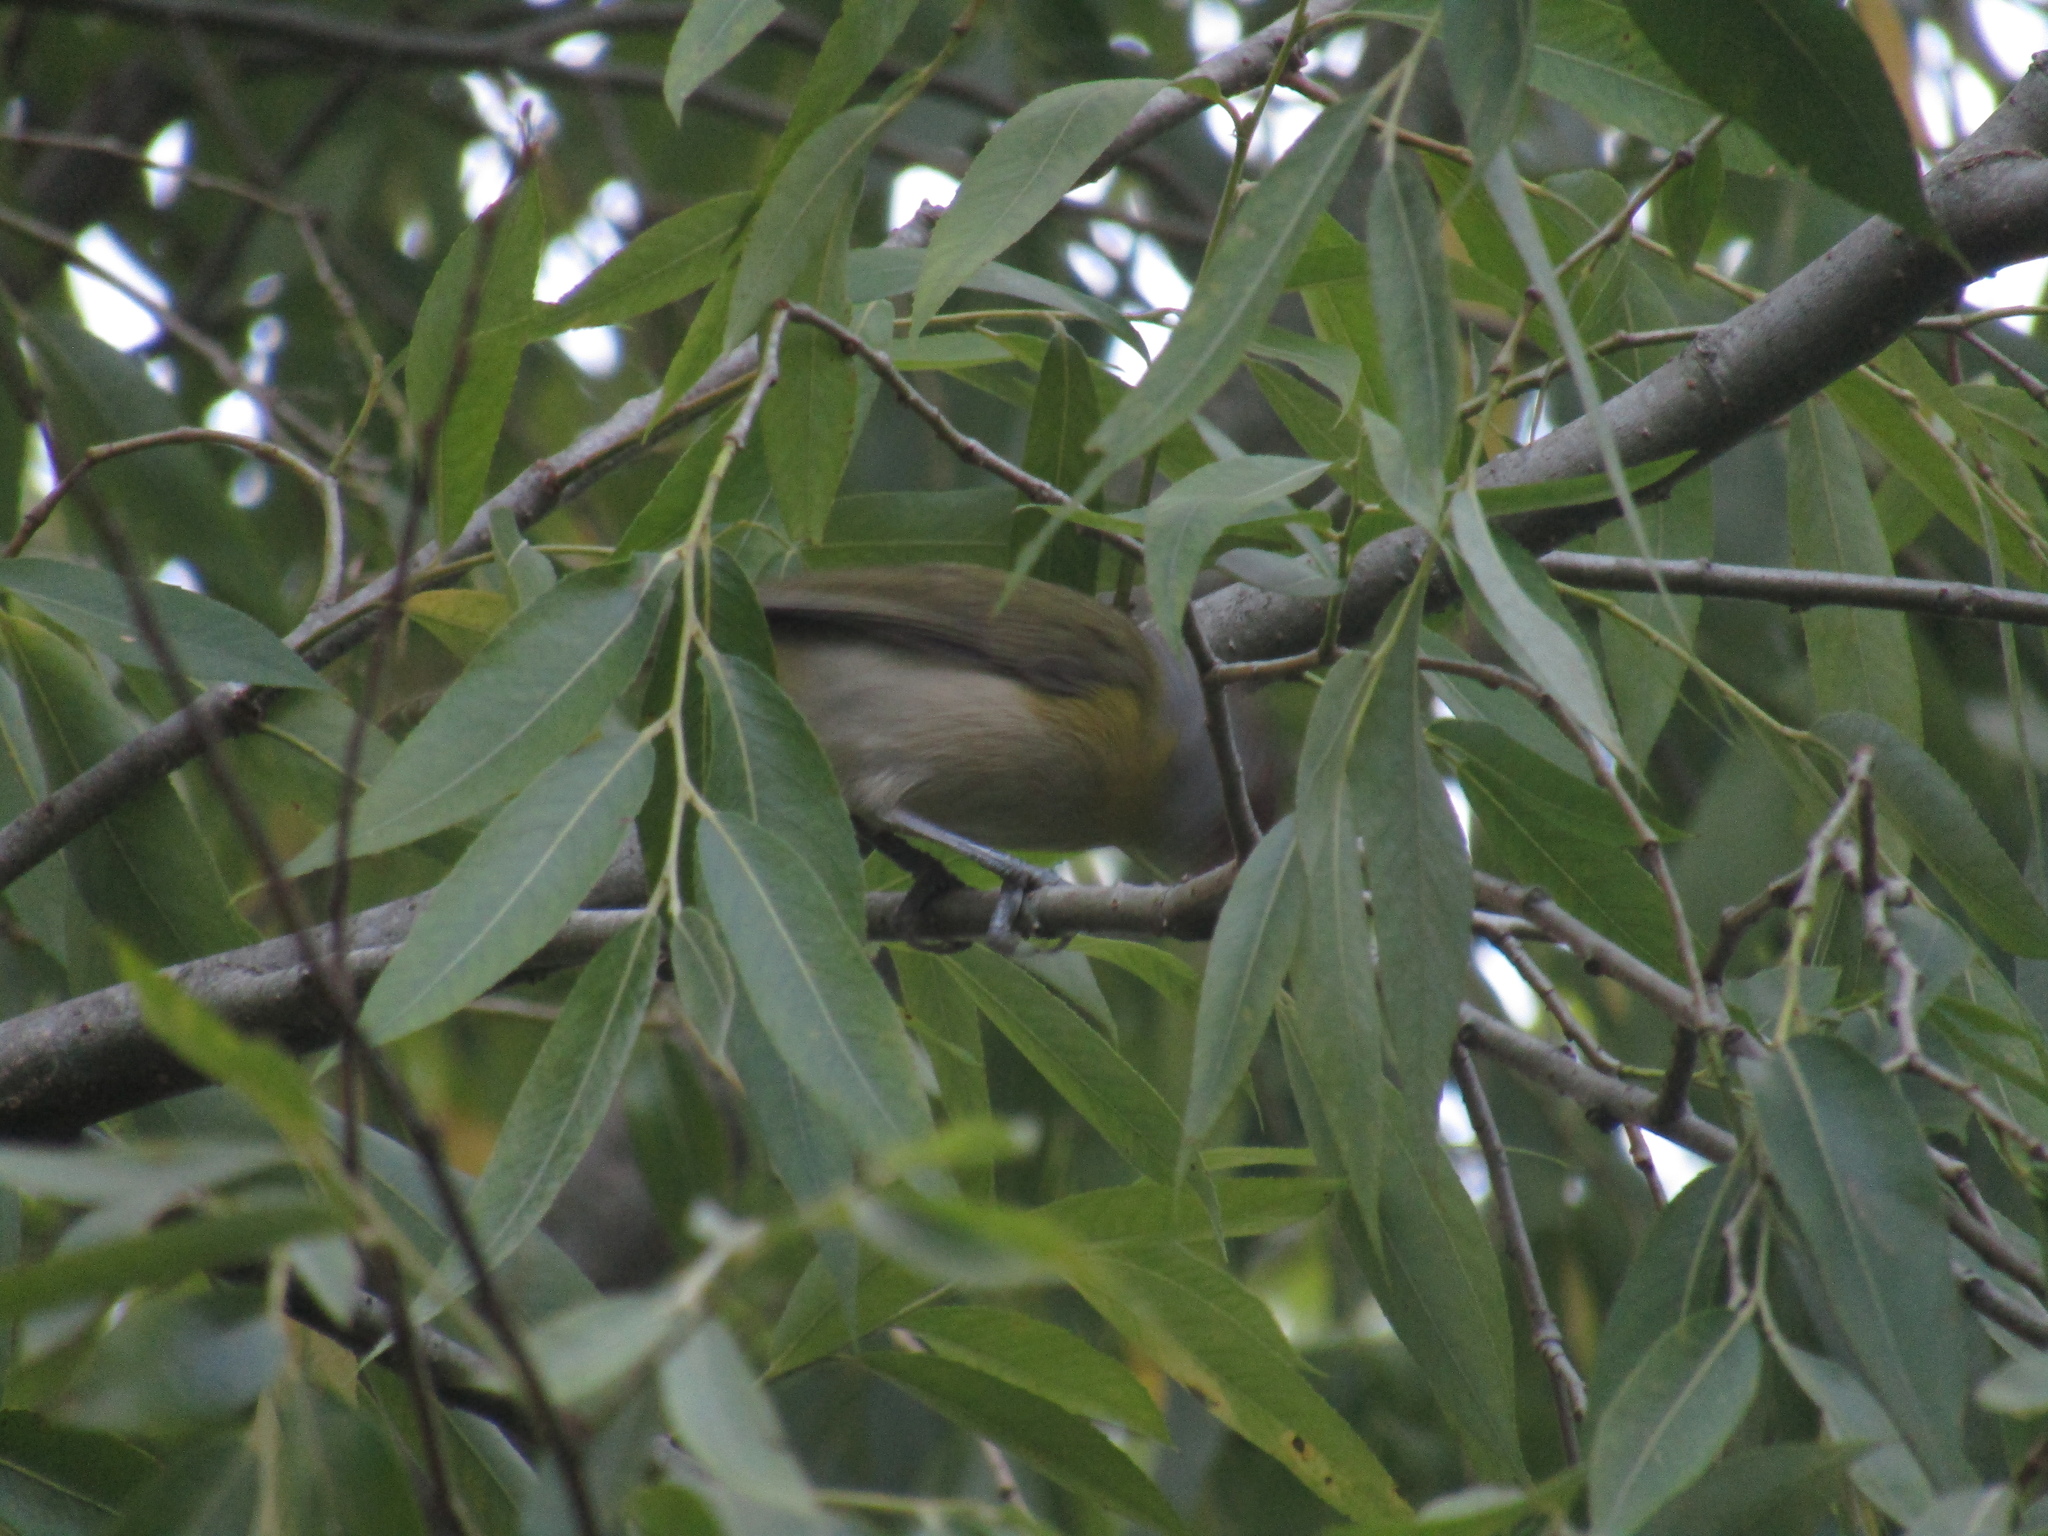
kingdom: Animalia
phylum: Chordata
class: Aves
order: Passeriformes
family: Vireonidae
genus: Cyclarhis
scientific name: Cyclarhis gujanensis
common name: Rufous-browed peppershrike
